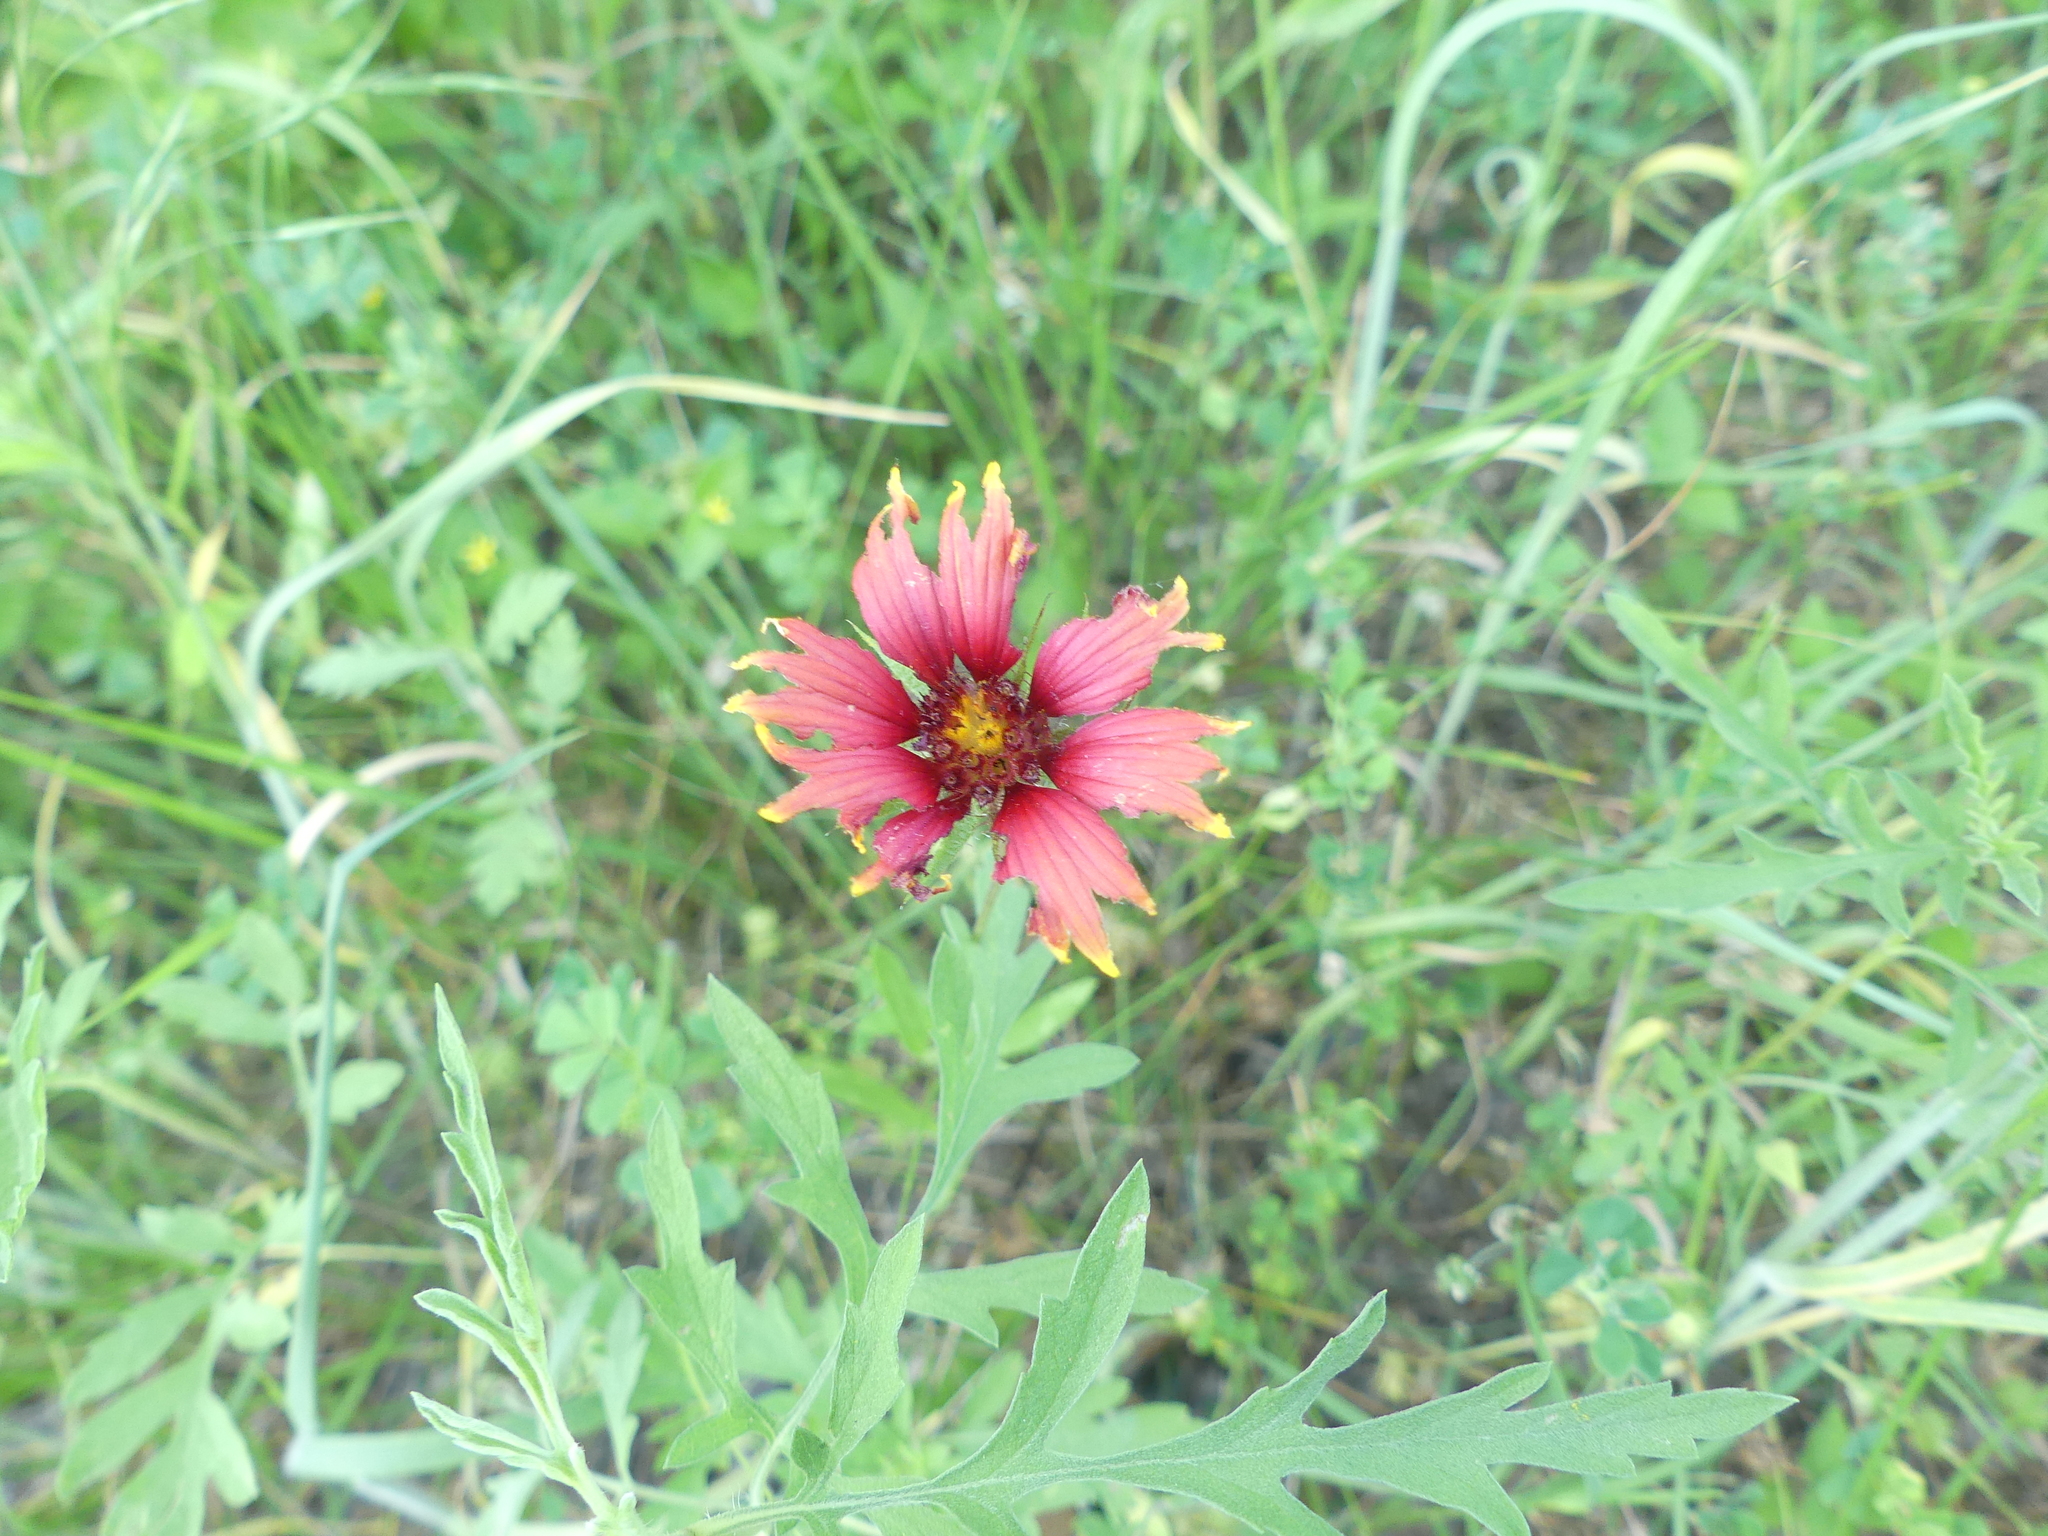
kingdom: Plantae
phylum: Tracheophyta
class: Magnoliopsida
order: Asterales
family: Asteraceae
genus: Gaillardia
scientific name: Gaillardia pulchella
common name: Firewheel
